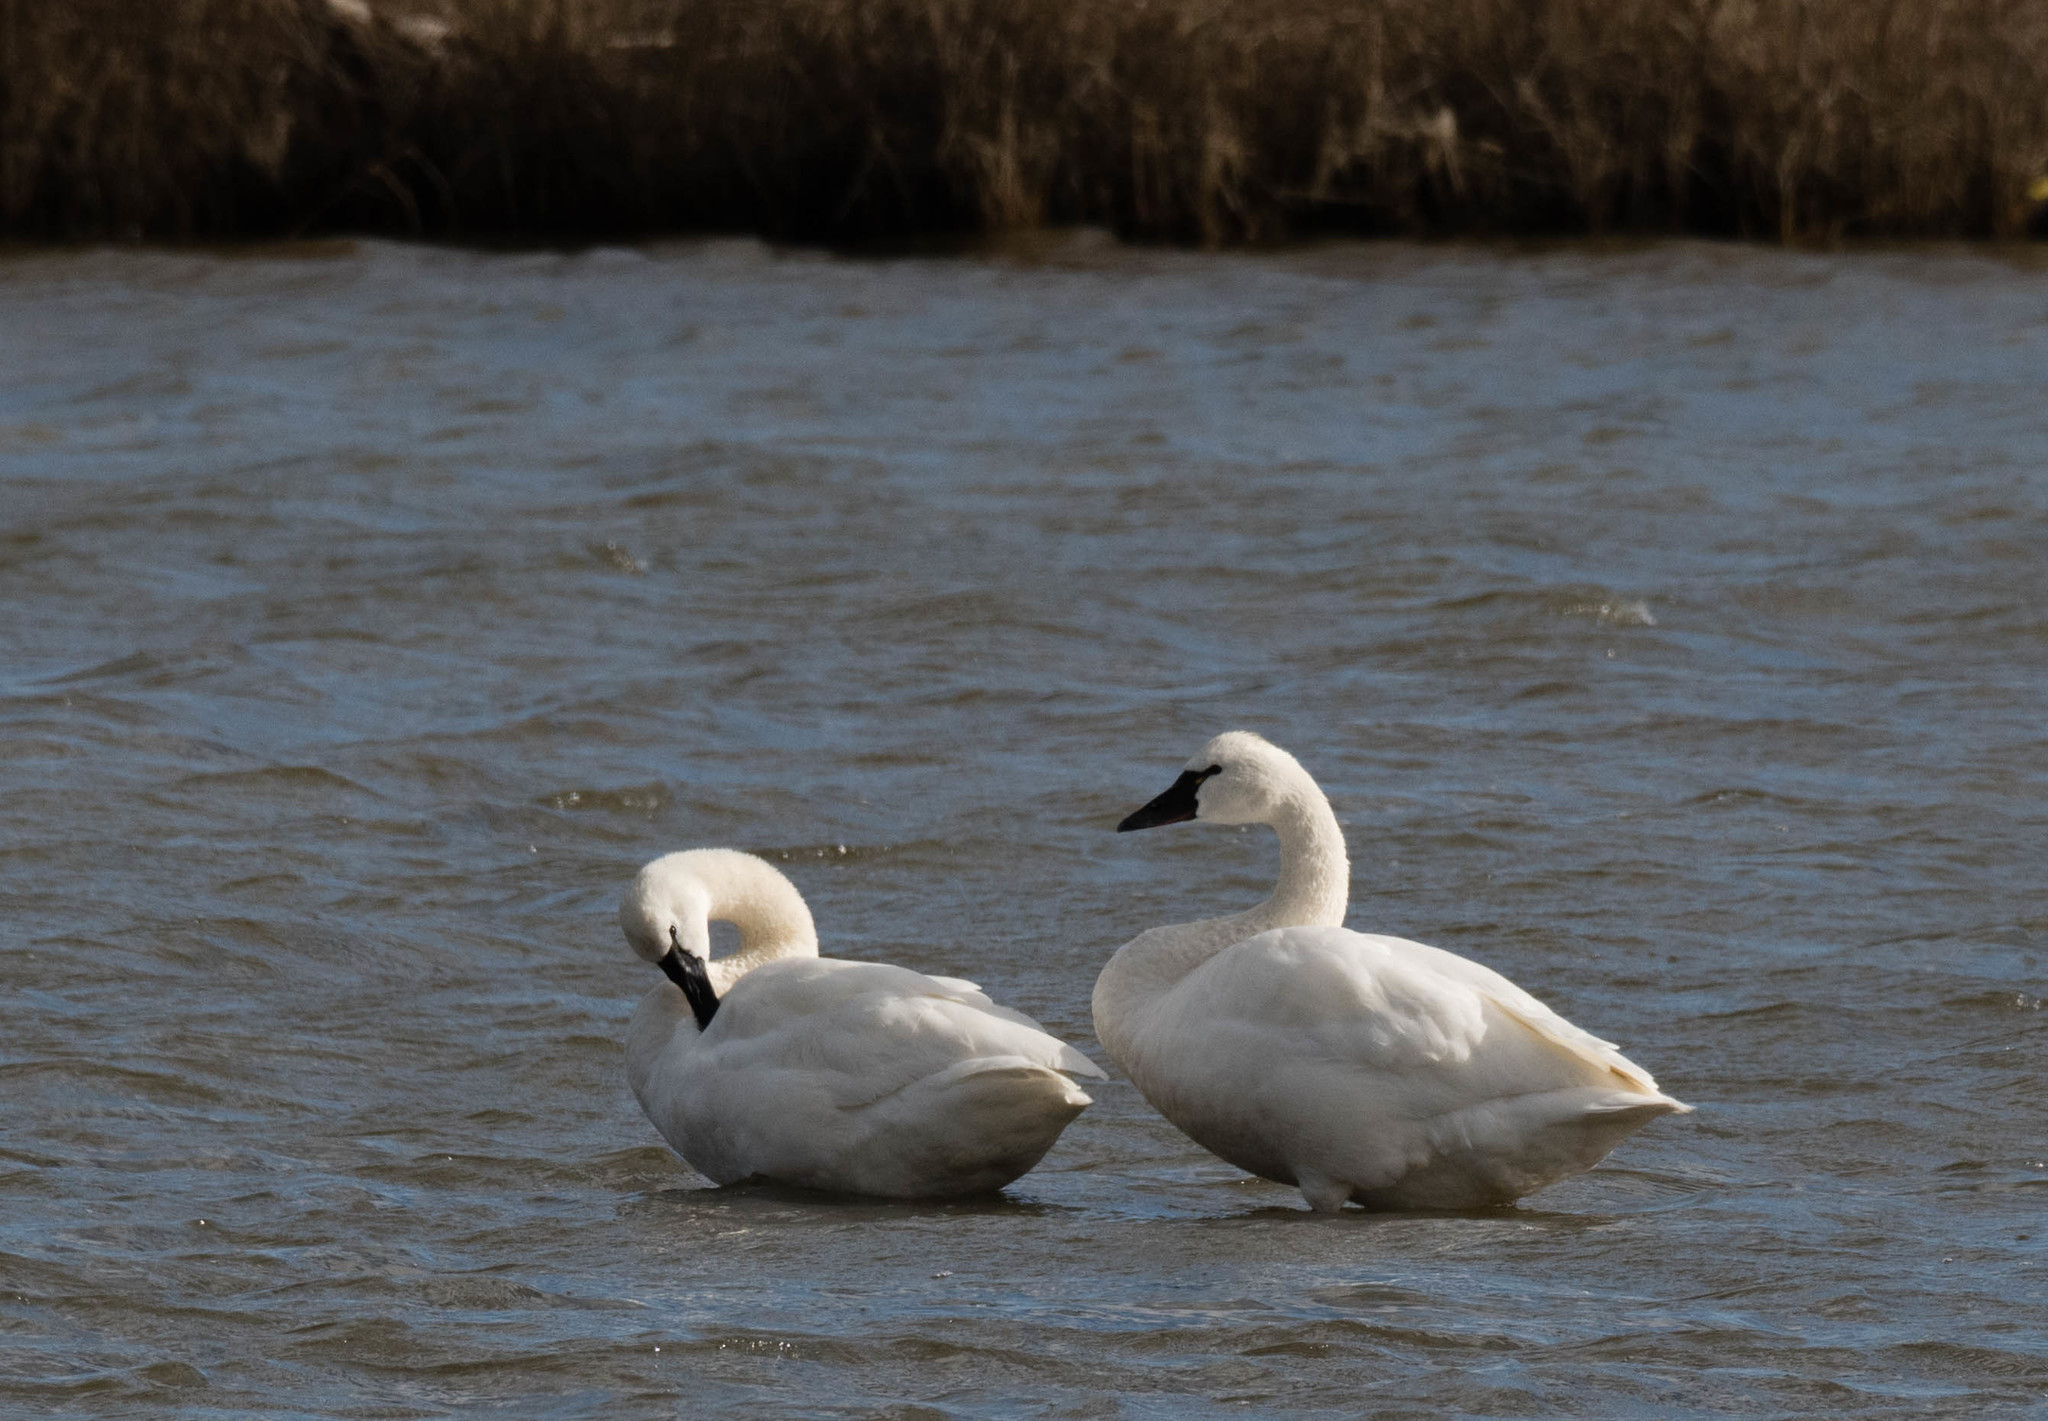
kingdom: Animalia
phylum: Chordata
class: Aves
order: Anseriformes
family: Anatidae
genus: Cygnus
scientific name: Cygnus columbianus
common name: Tundra swan
